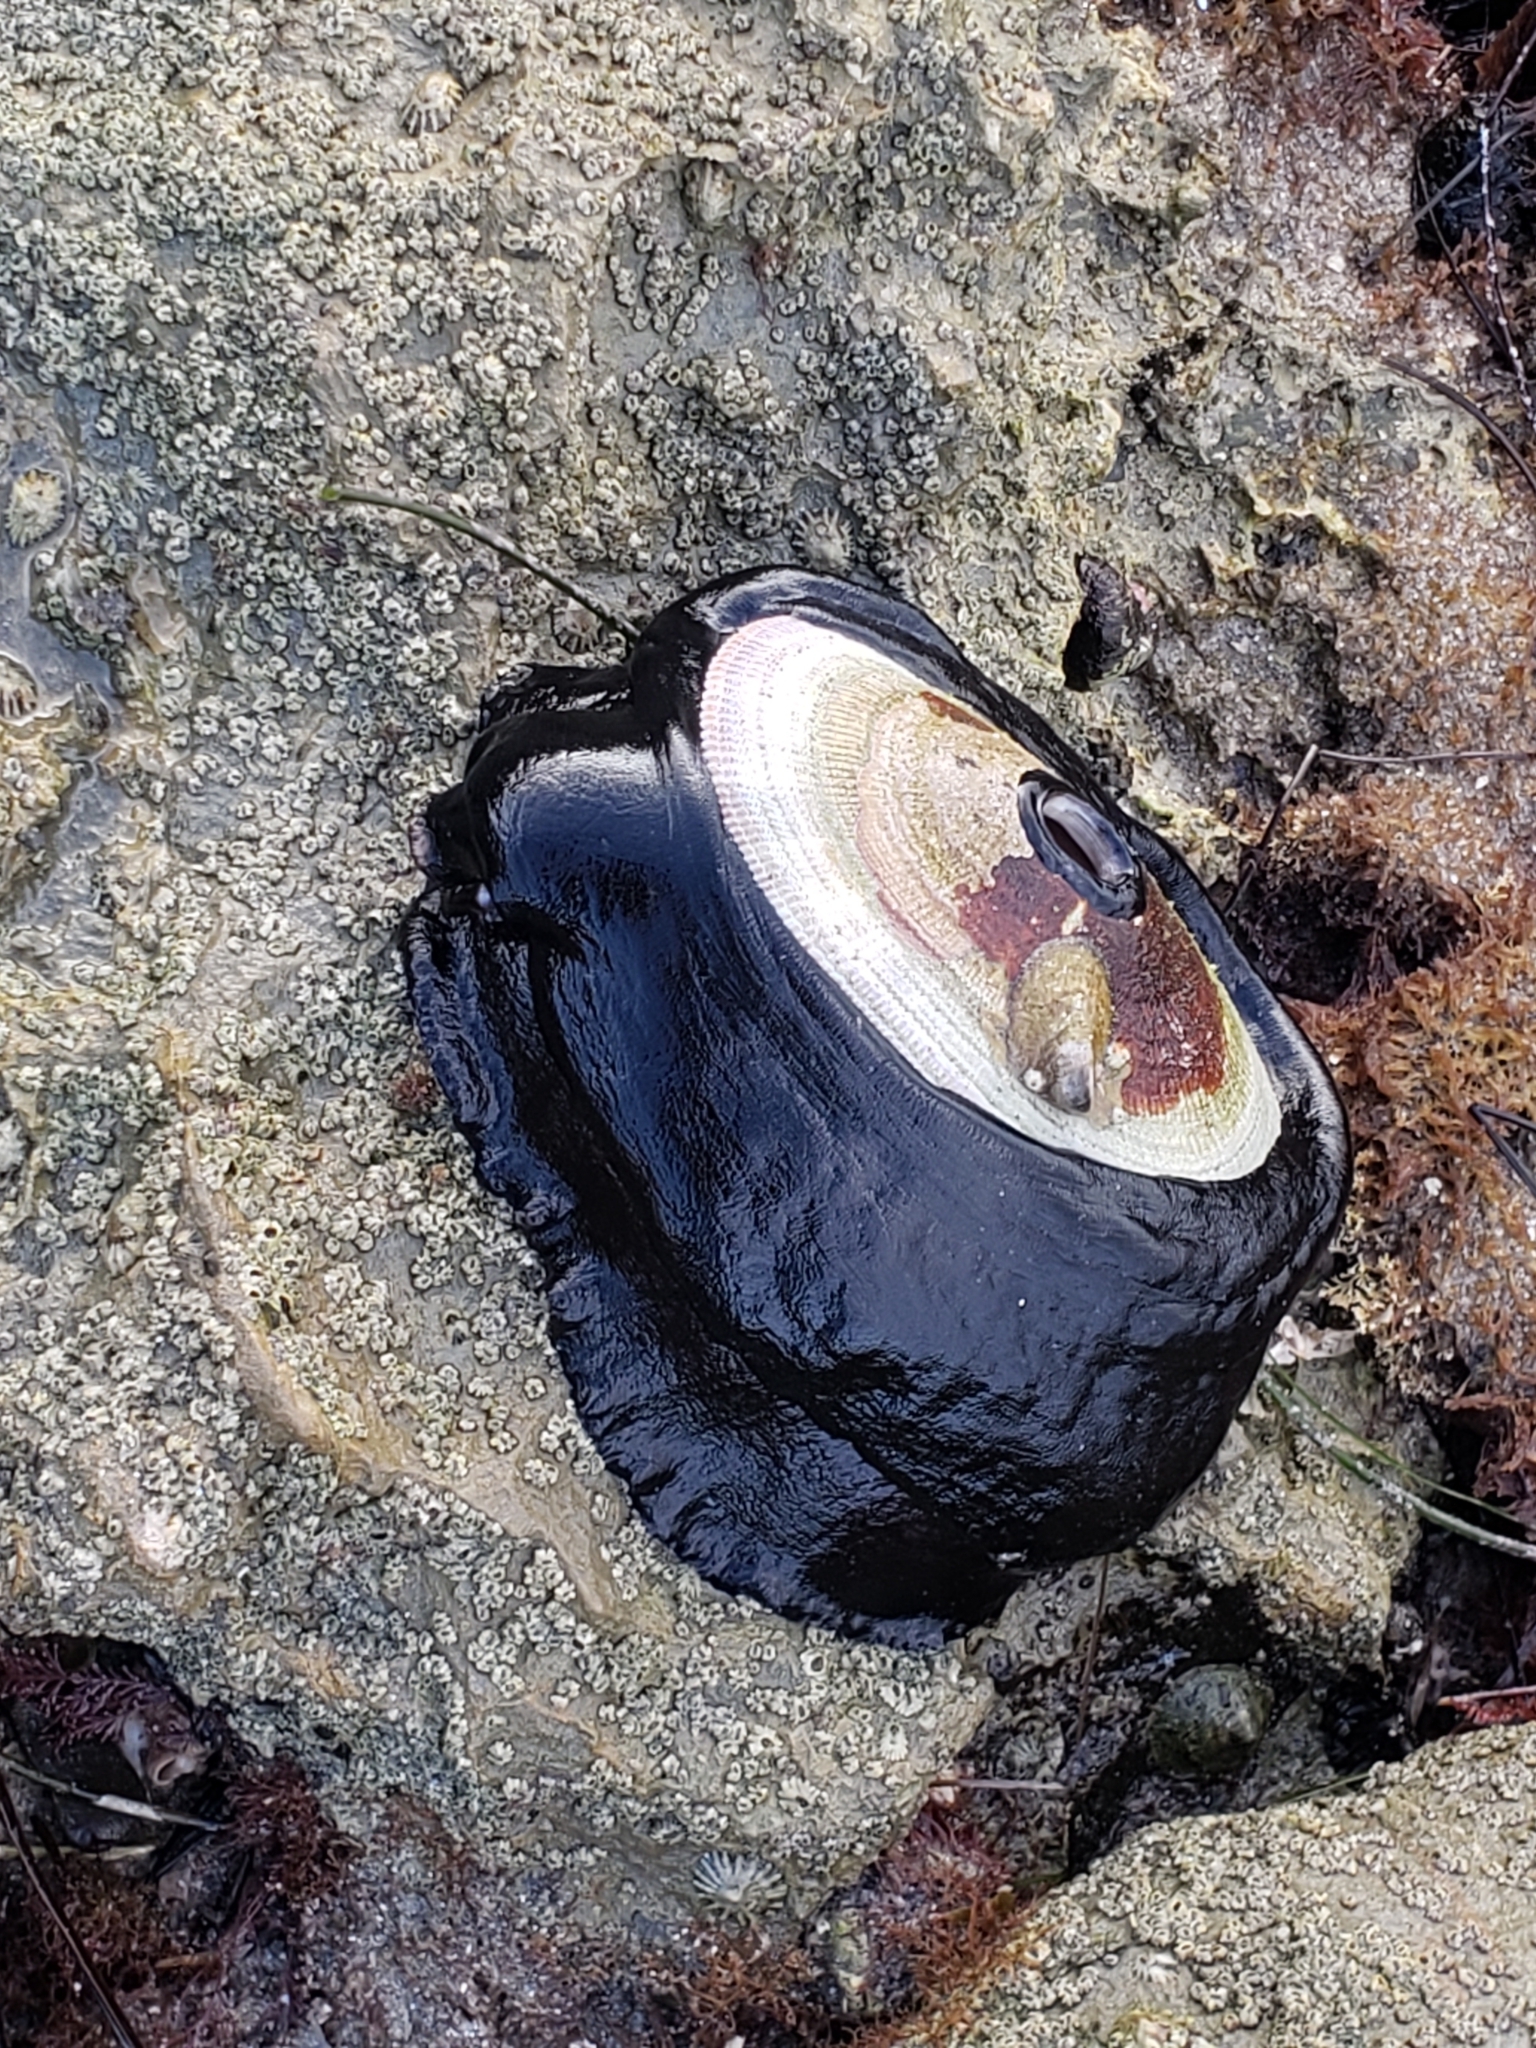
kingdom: Animalia
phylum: Mollusca
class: Gastropoda
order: Lepetellida
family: Fissurellidae
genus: Megathura
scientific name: Megathura crenulata
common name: Giant keyhole limpet
